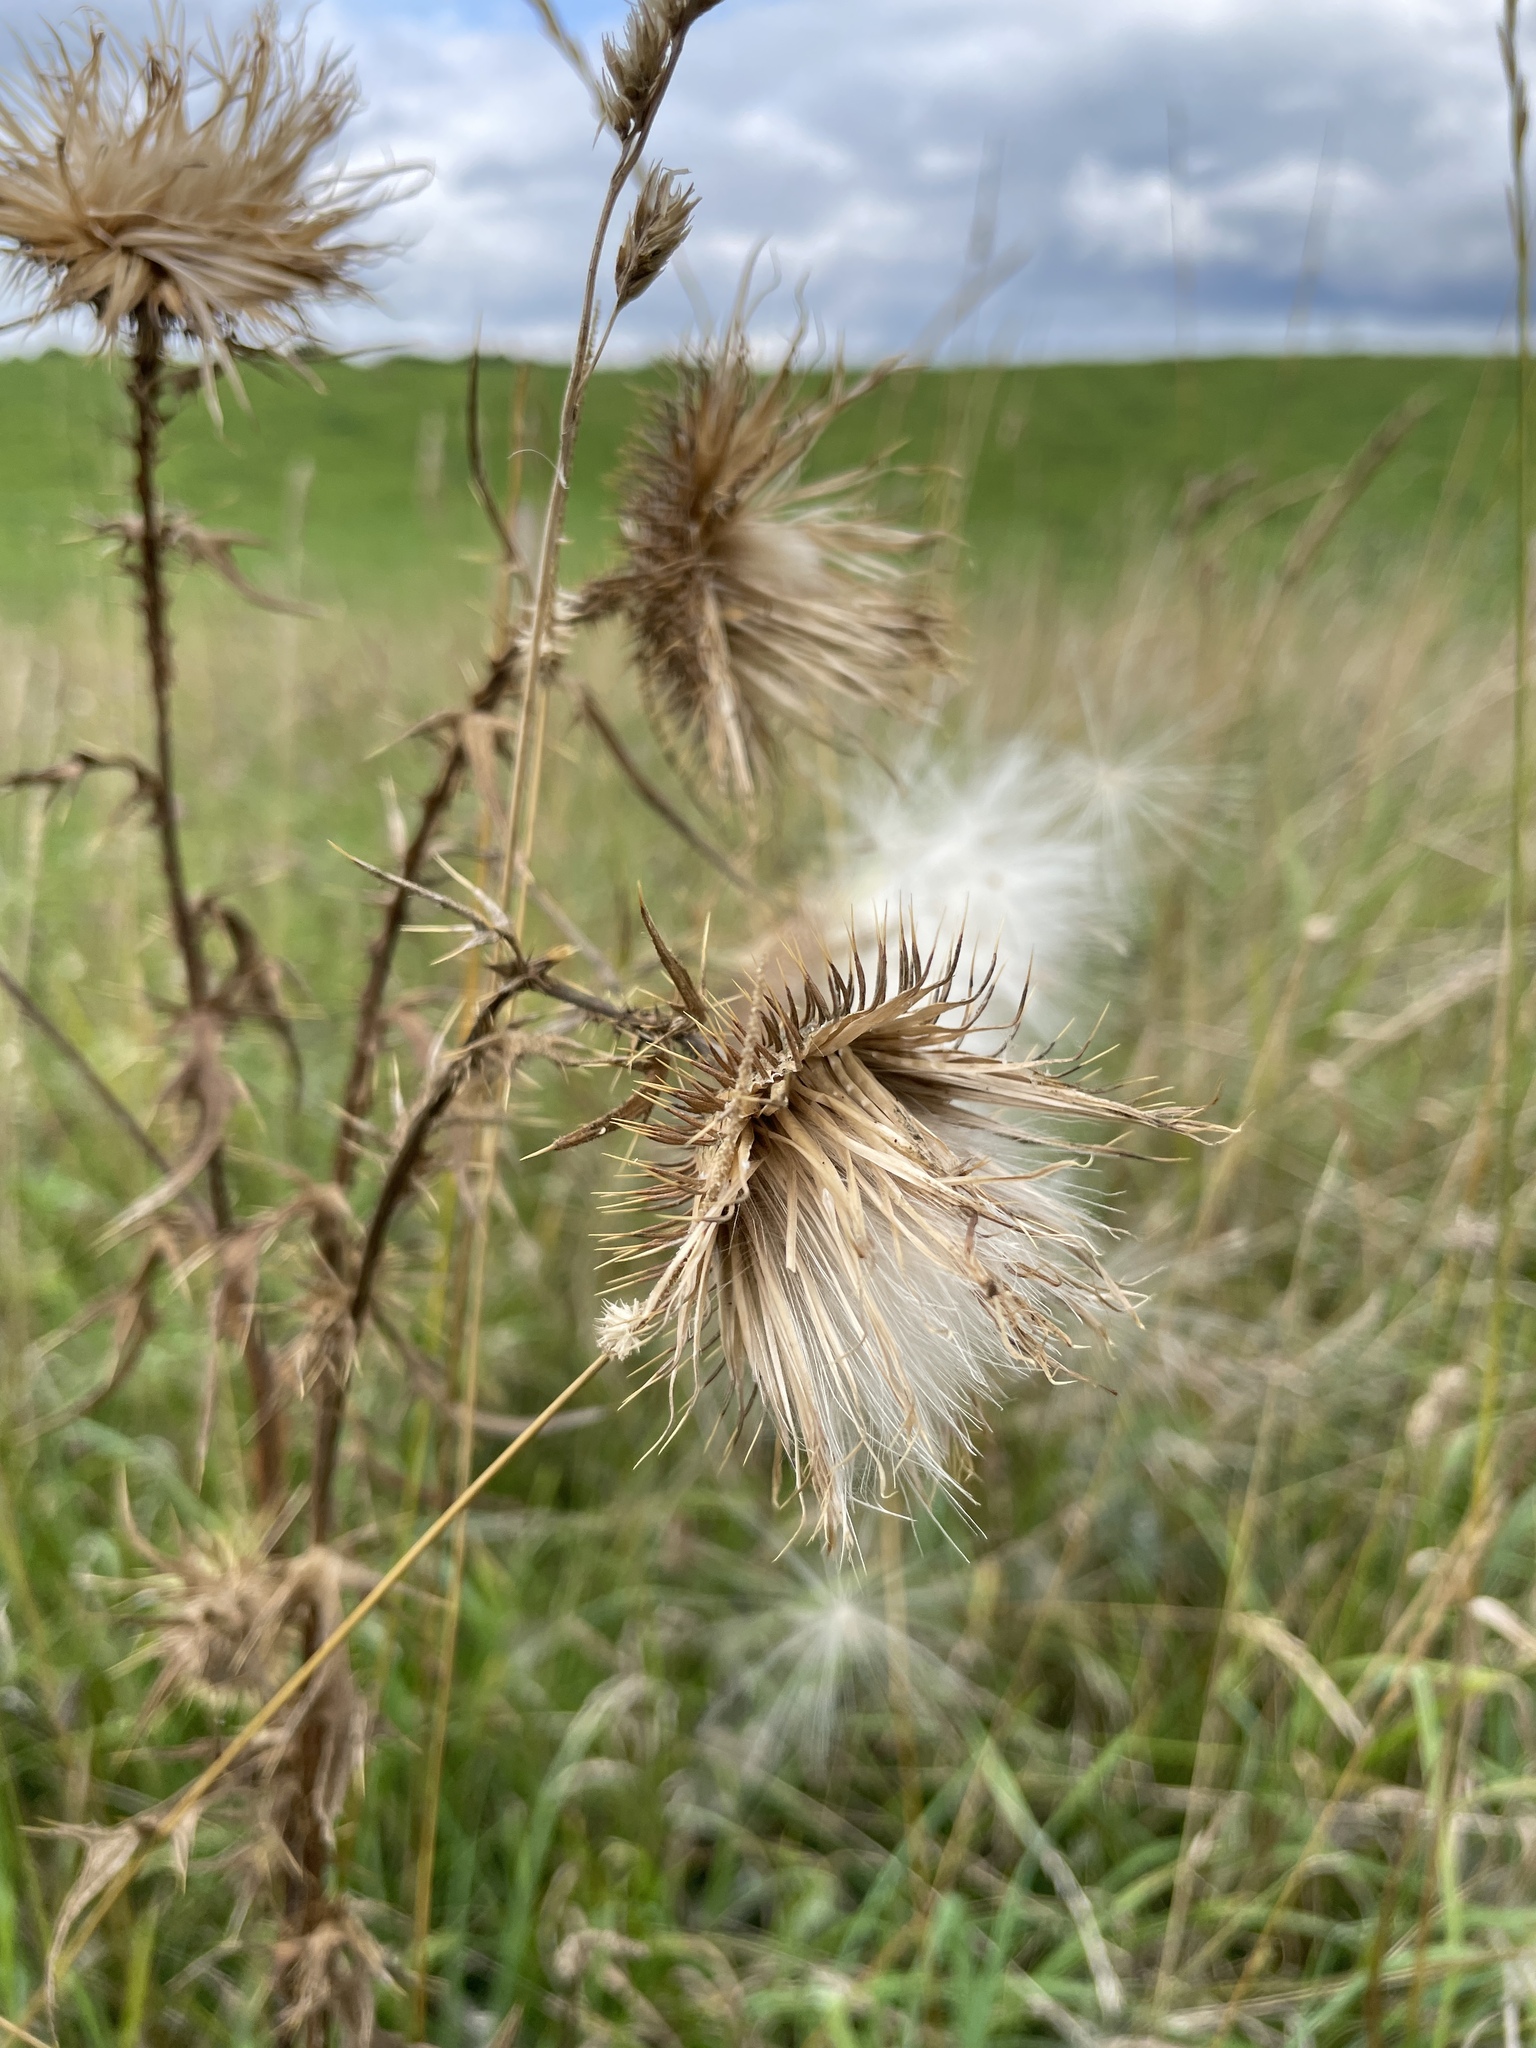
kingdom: Plantae
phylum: Tracheophyta
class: Magnoliopsida
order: Asterales
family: Asteraceae
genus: Cirsium
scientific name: Cirsium vulgare
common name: Bull thistle
